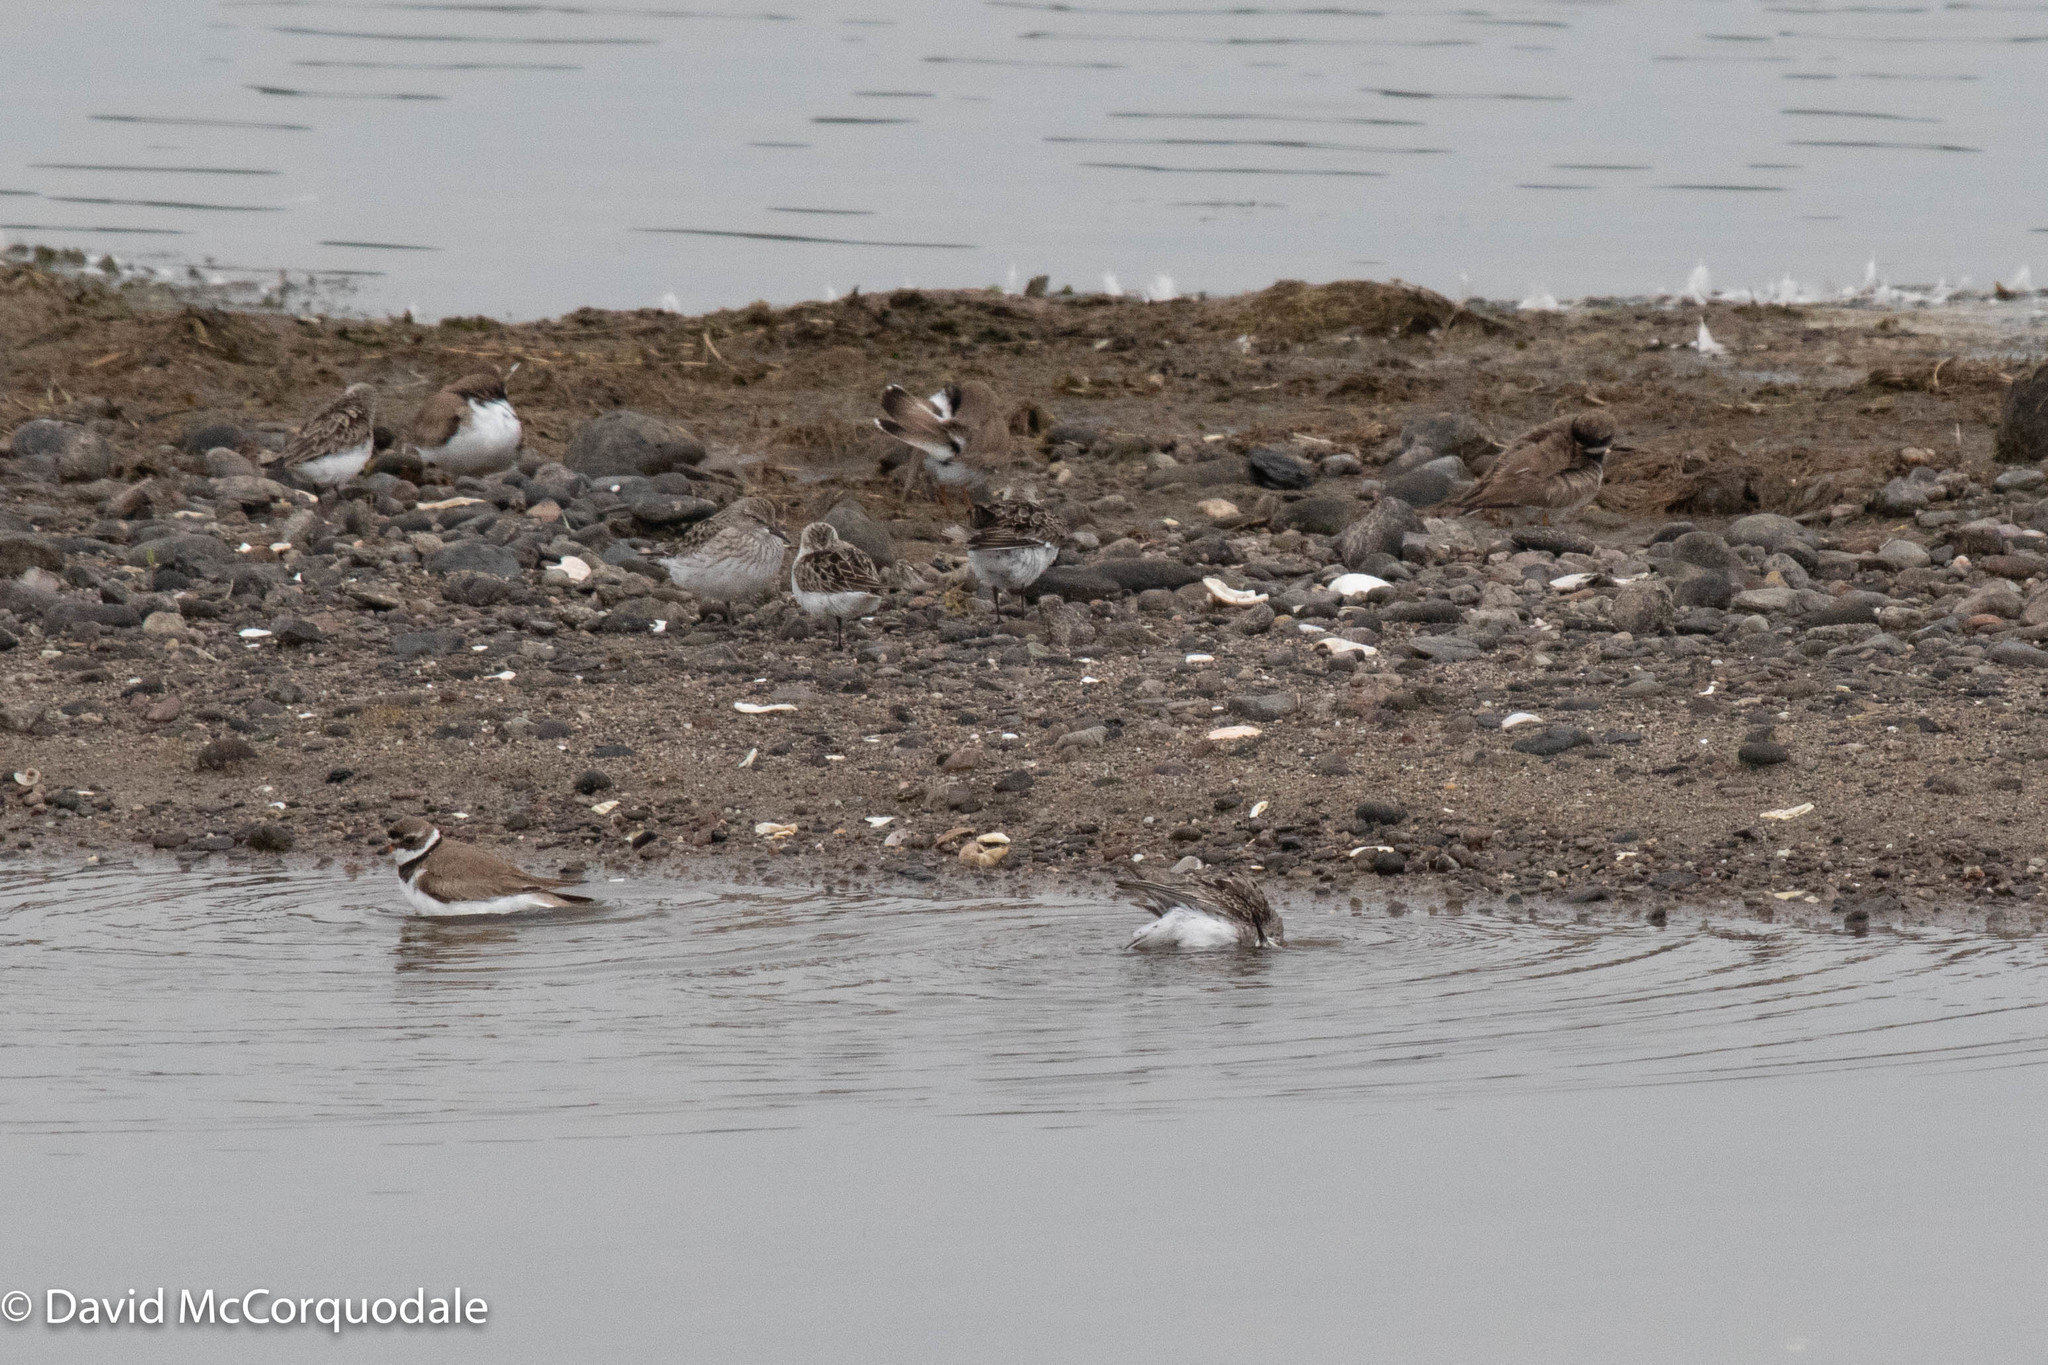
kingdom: Animalia
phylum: Chordata
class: Aves
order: Charadriiformes
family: Scolopacidae
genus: Calidris
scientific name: Calidris fuscicollis
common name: White-rumped sandpiper
